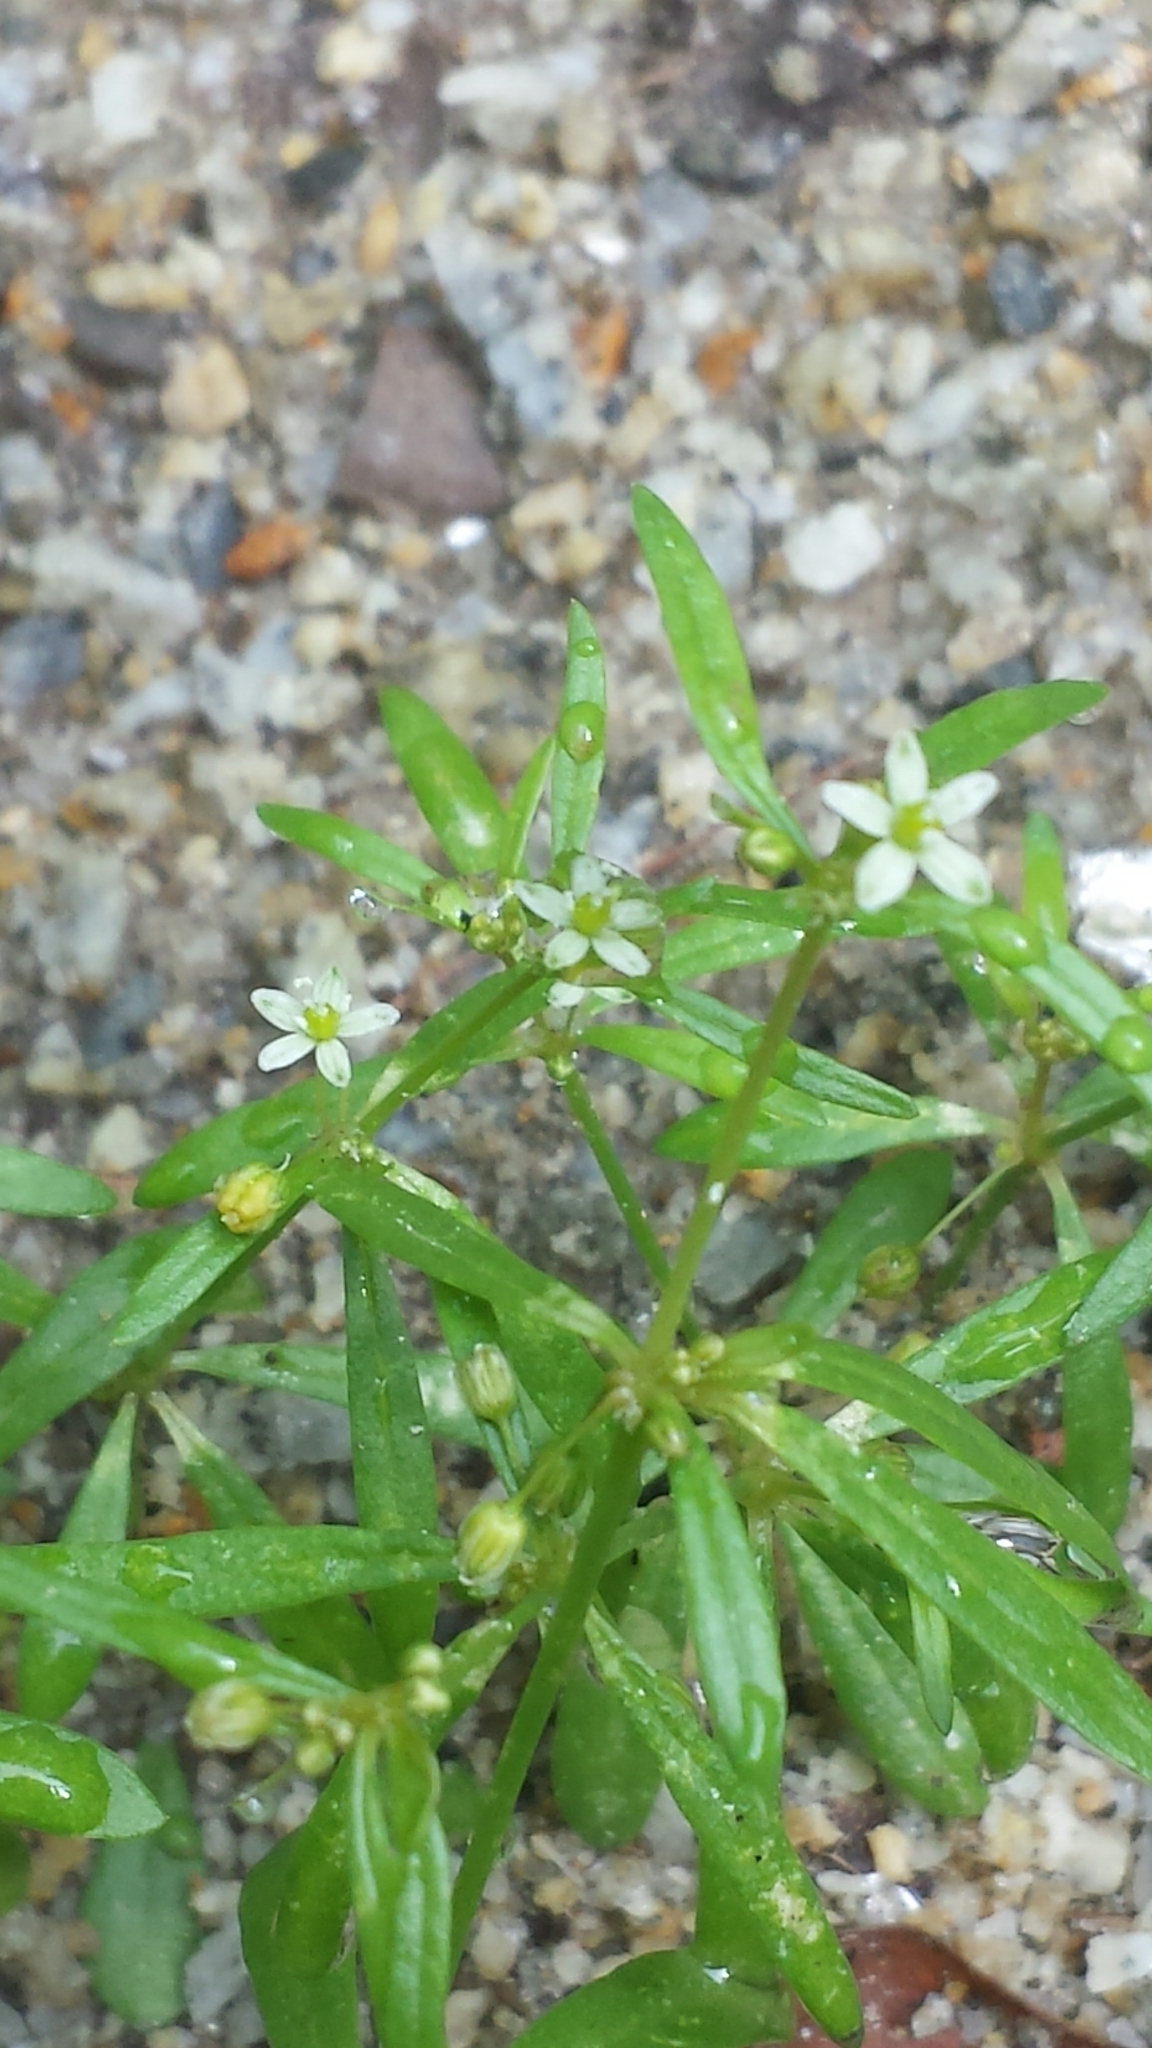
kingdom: Plantae
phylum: Tracheophyta
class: Magnoliopsida
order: Caryophyllales
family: Molluginaceae
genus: Mollugo
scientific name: Mollugo verticillata
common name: Green carpetweed
